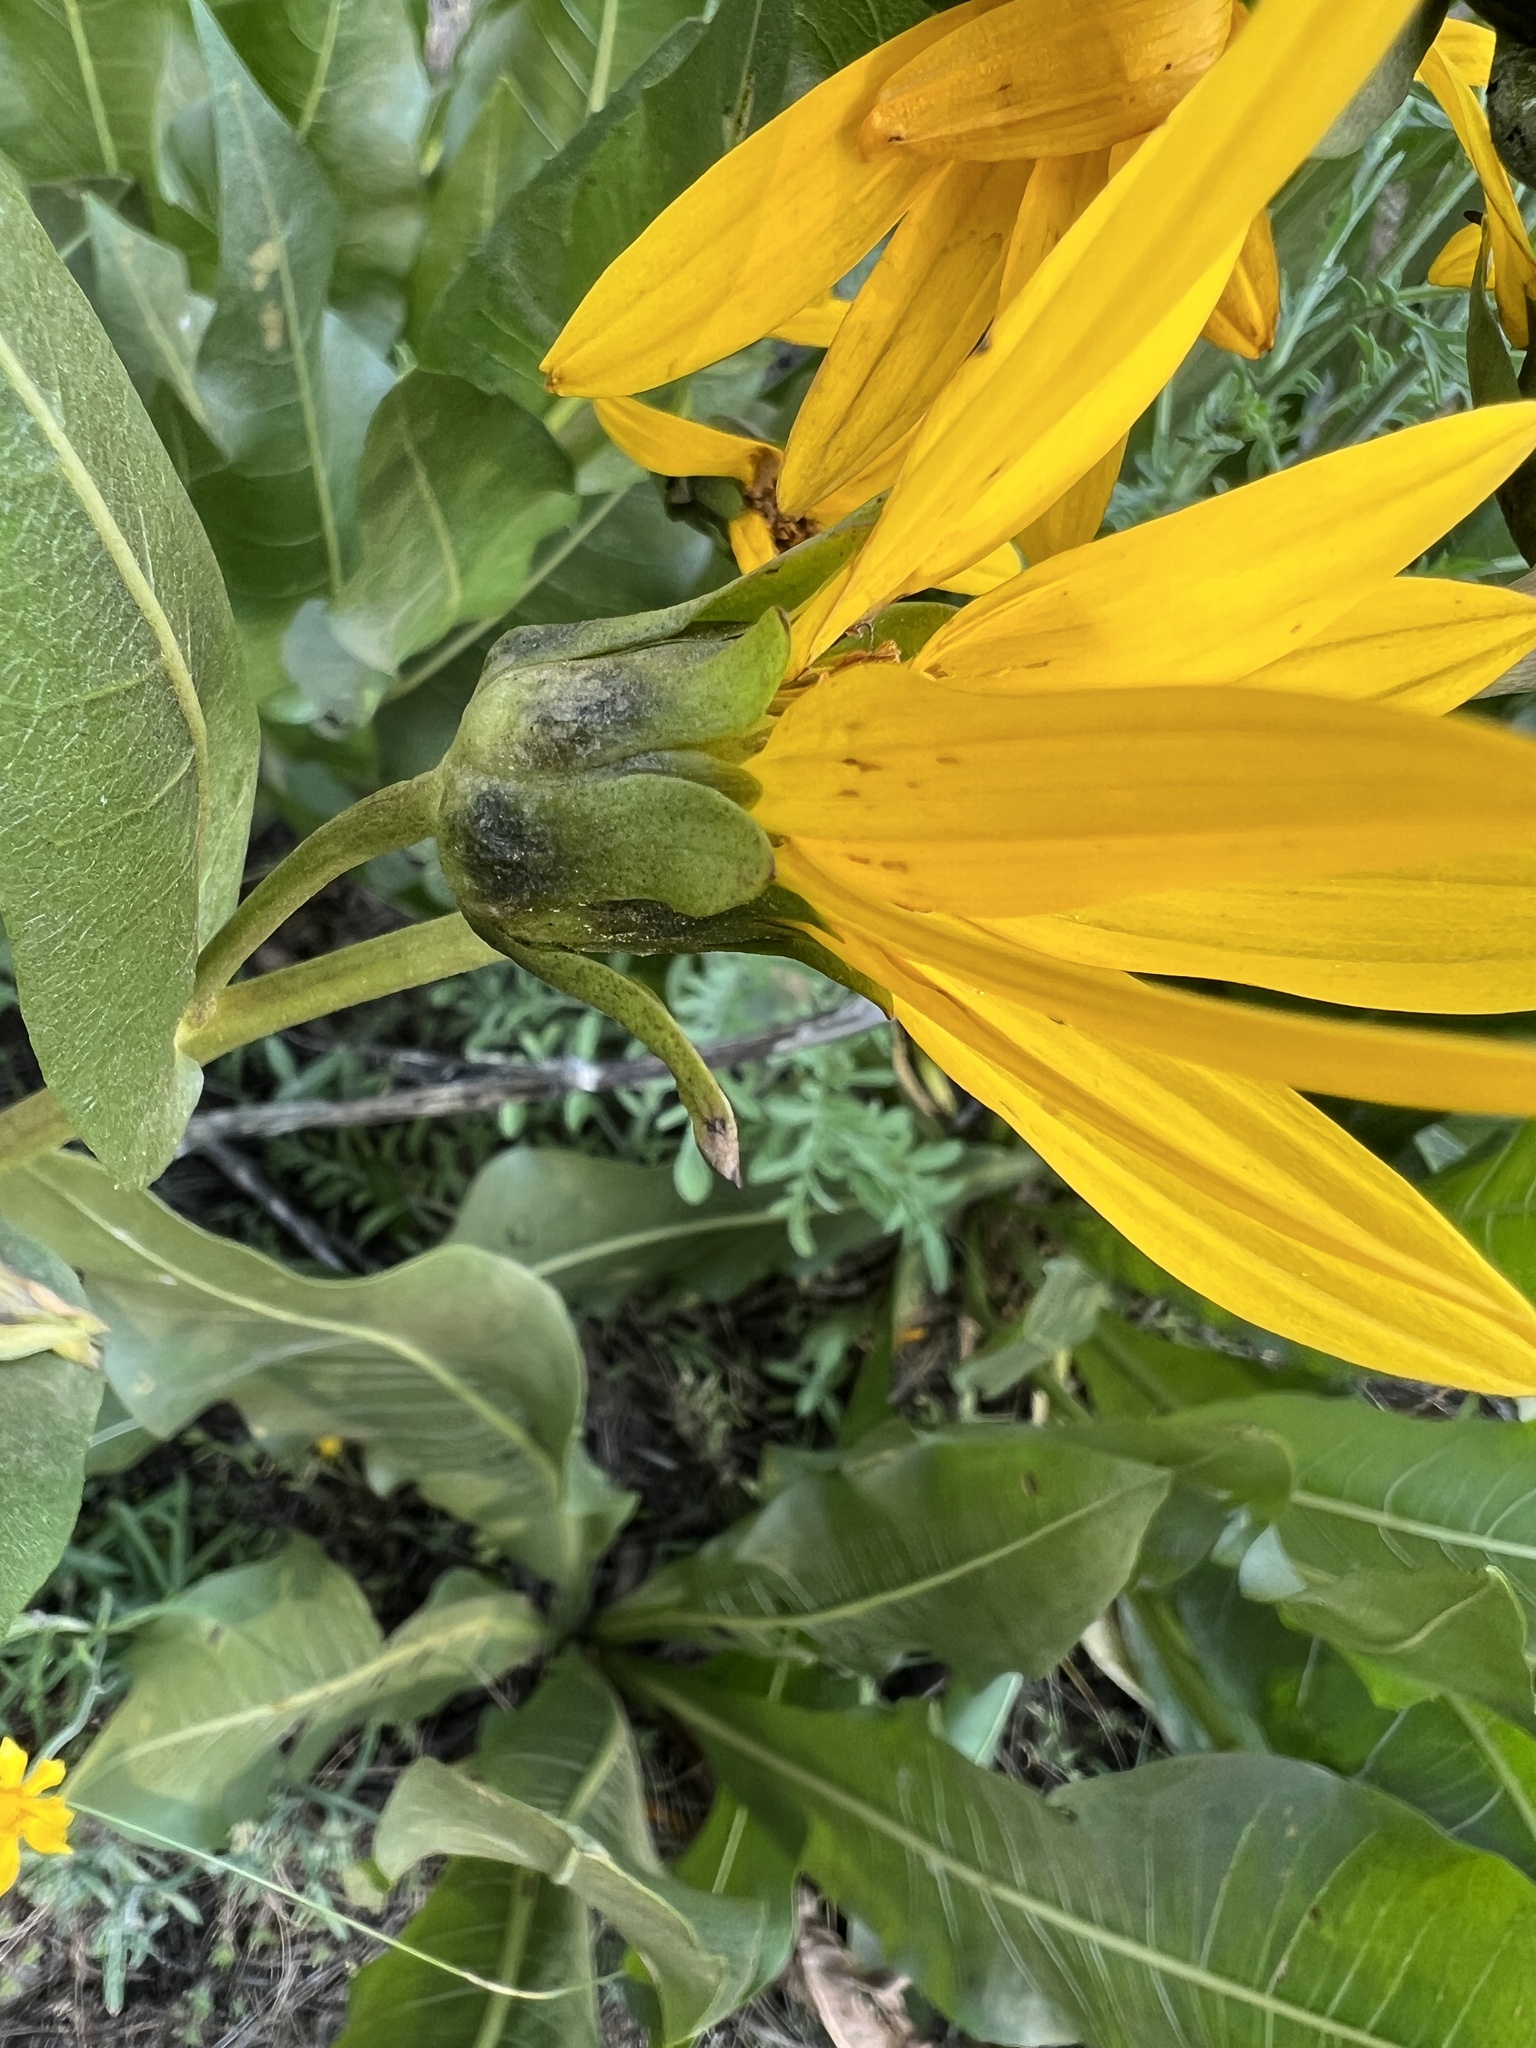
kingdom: Plantae
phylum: Tracheophyta
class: Magnoliopsida
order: Asterales
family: Asteraceae
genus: Wyethia
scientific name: Wyethia amplexicaulis
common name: Northern mule's-ears
